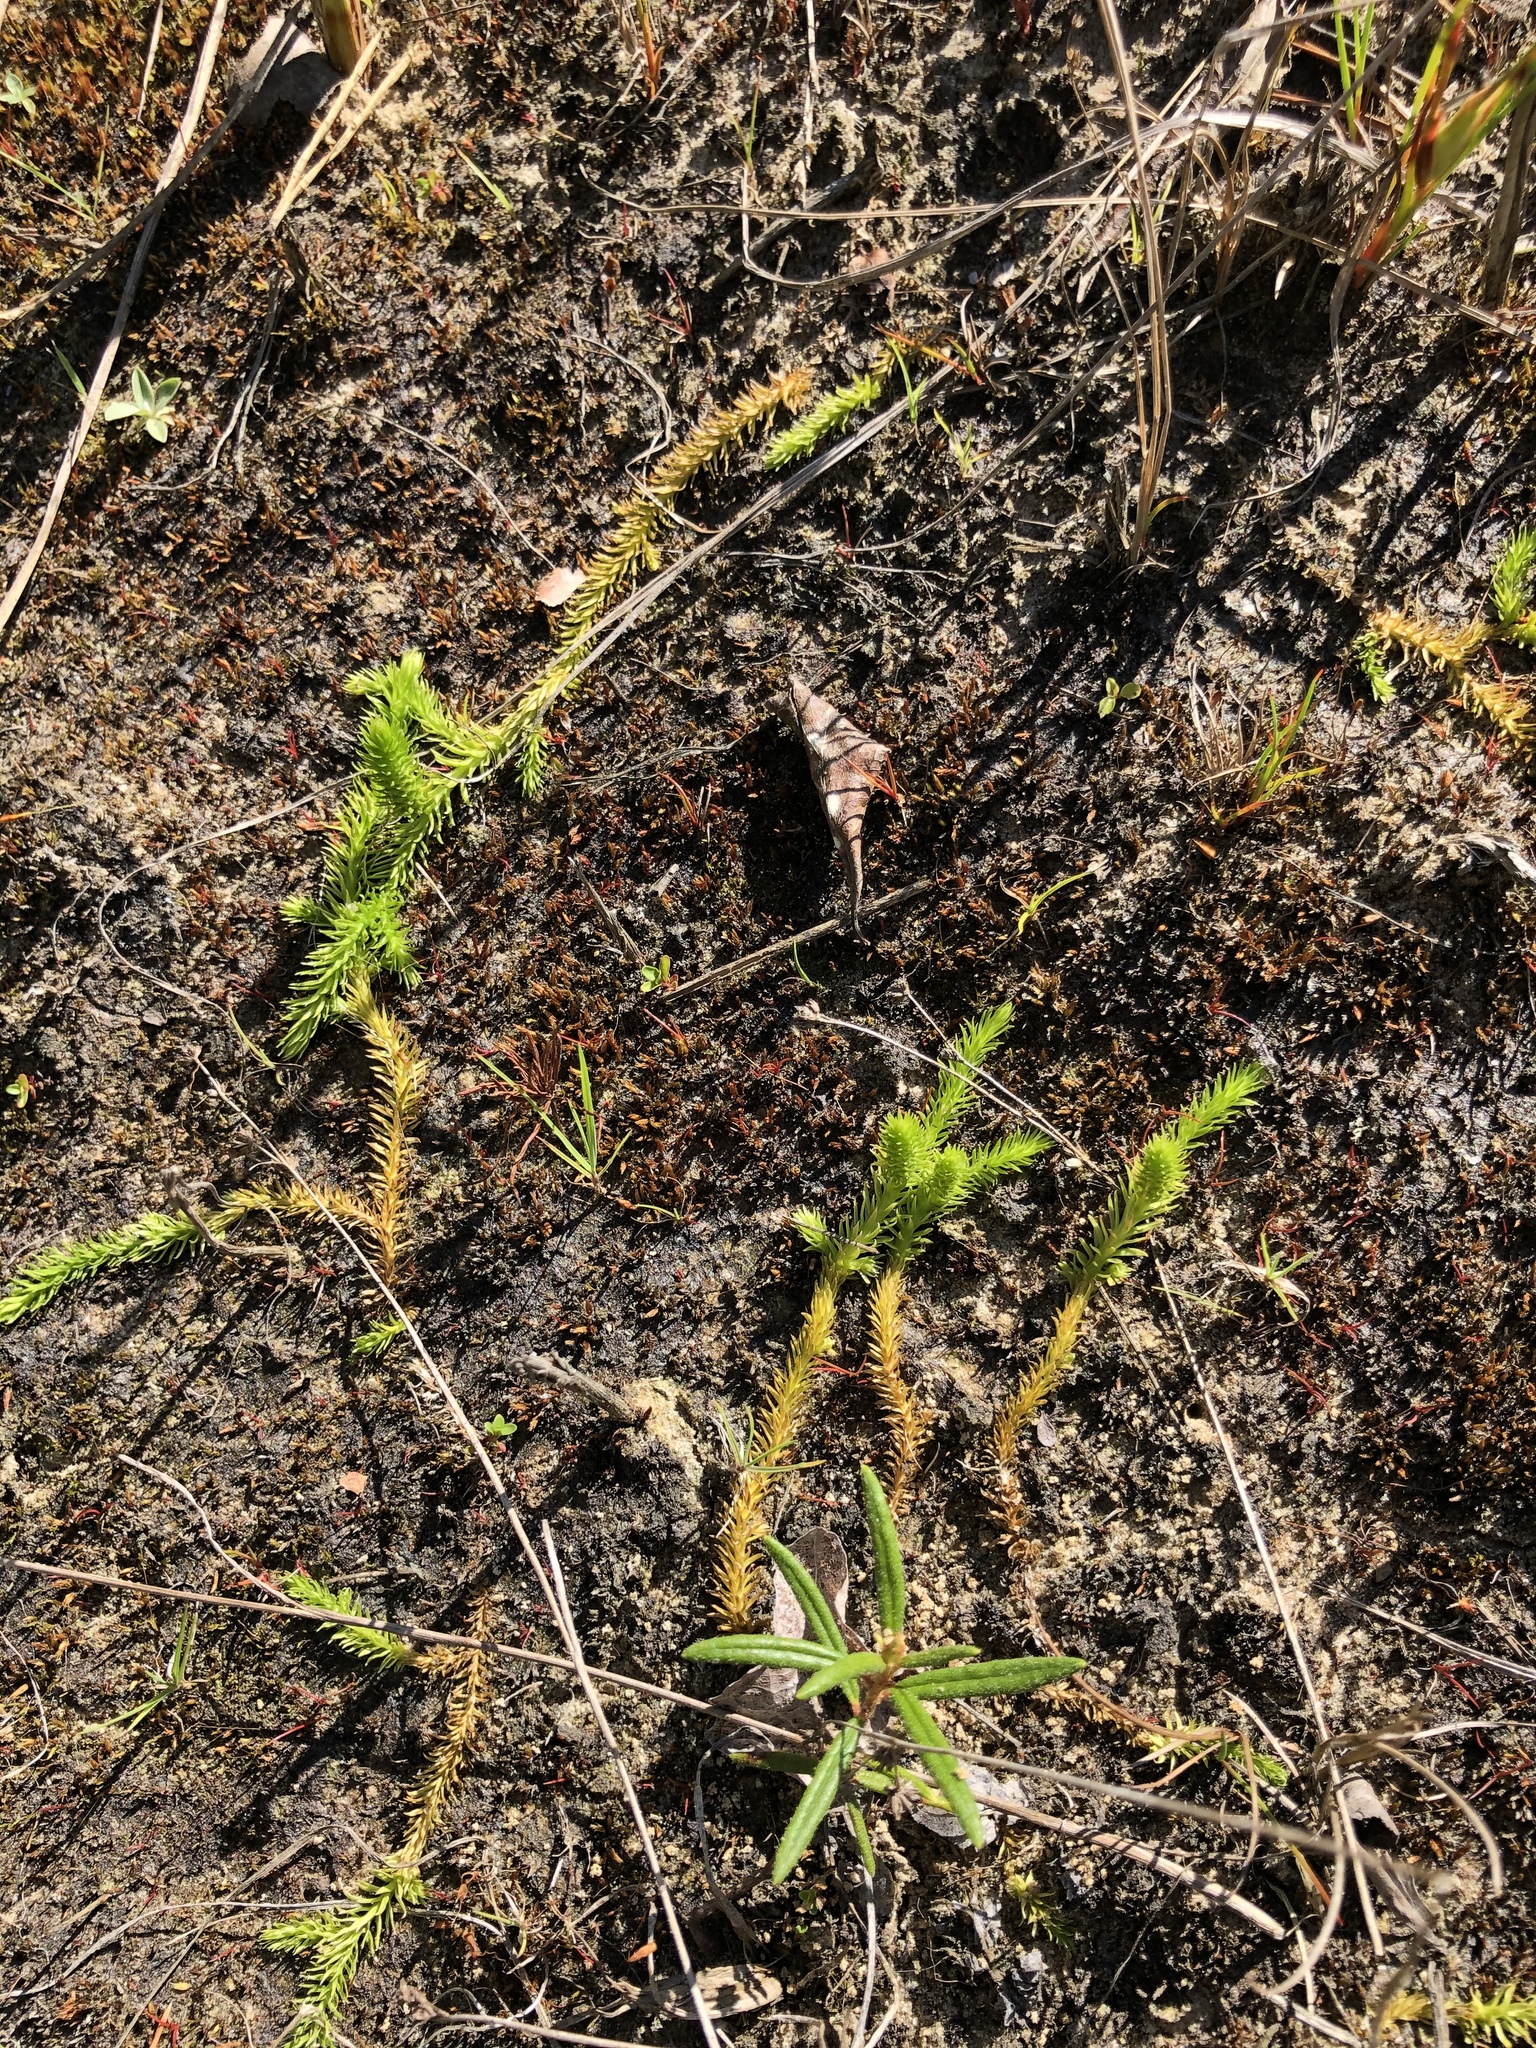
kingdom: Plantae
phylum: Tracheophyta
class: Lycopodiopsida
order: Lycopodiales
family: Lycopodiaceae
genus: Lycopodiella
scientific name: Lycopodiella inundata
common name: Marsh clubmoss
